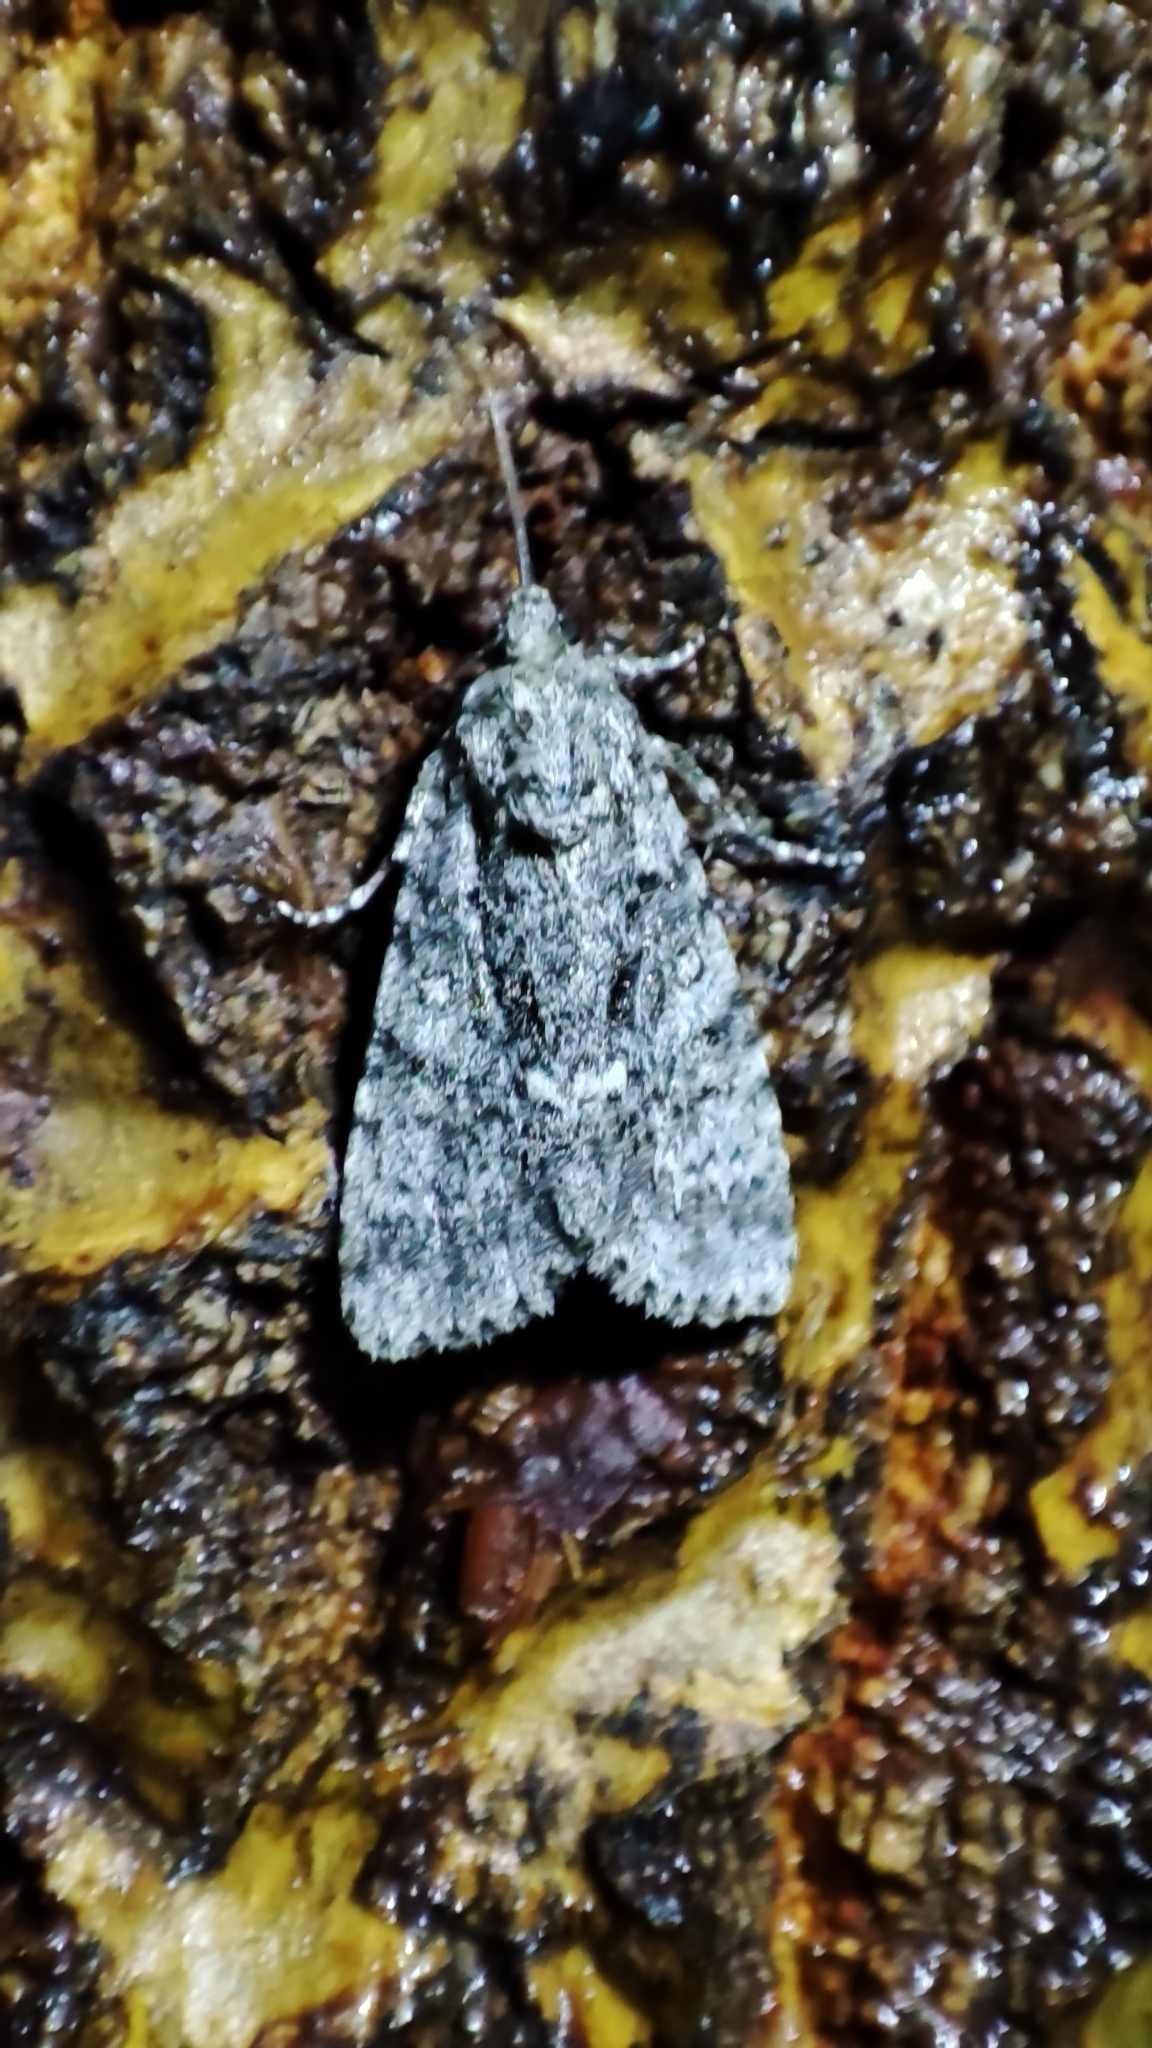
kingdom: Animalia
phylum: Arthropoda
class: Insecta
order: Lepidoptera
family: Noctuidae
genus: Acronicta
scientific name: Acronicta rumicis
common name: Knot grass
